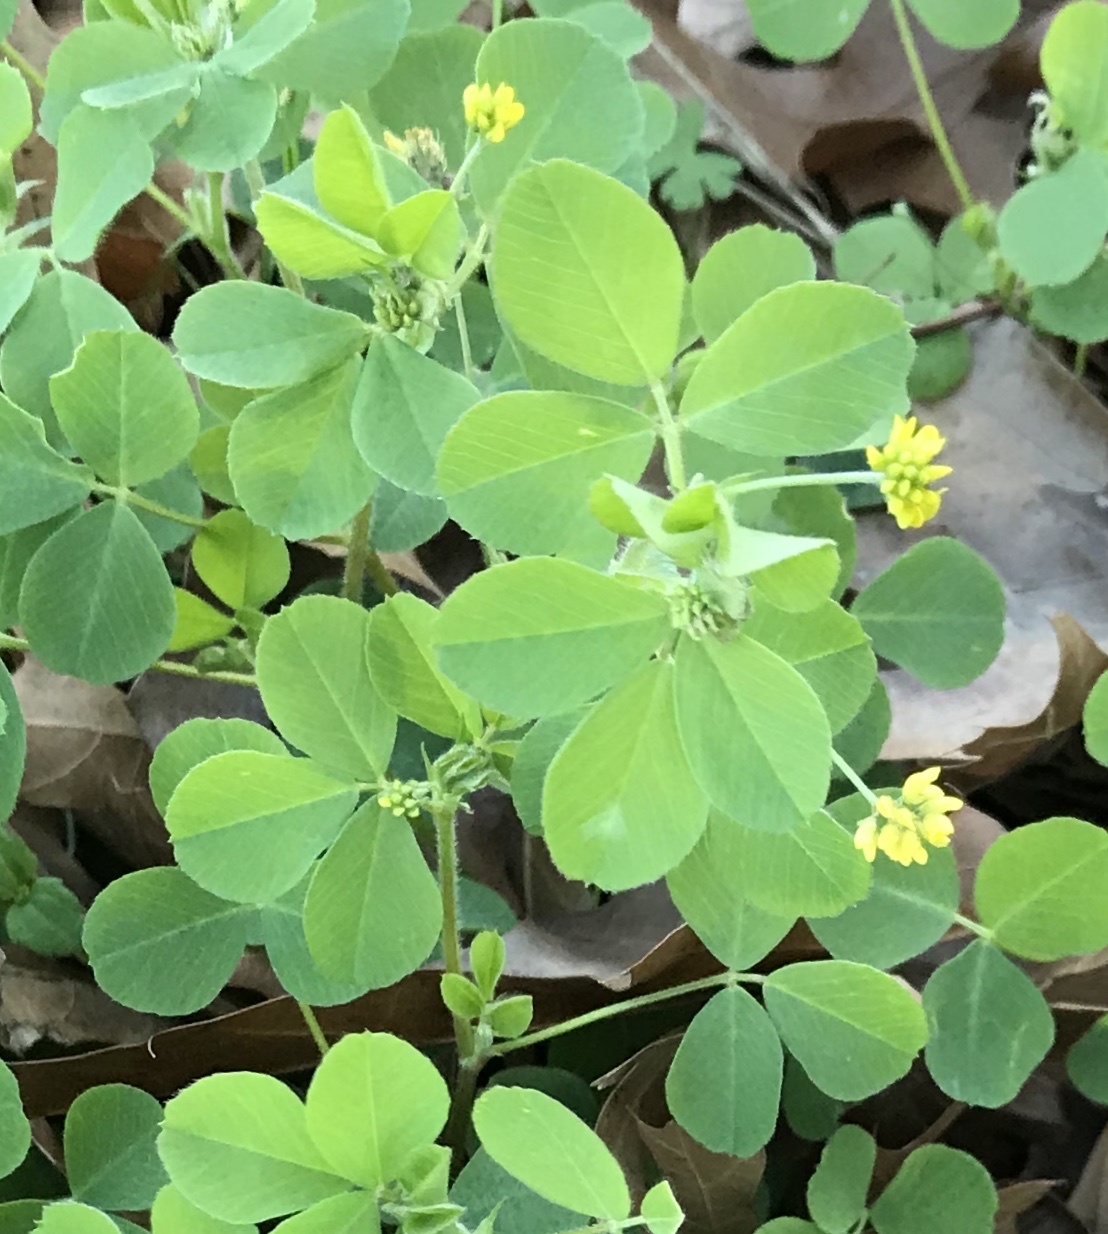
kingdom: Plantae
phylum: Tracheophyta
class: Magnoliopsida
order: Fabales
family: Fabaceae
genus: Medicago
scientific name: Medicago lupulina
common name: Black medick
